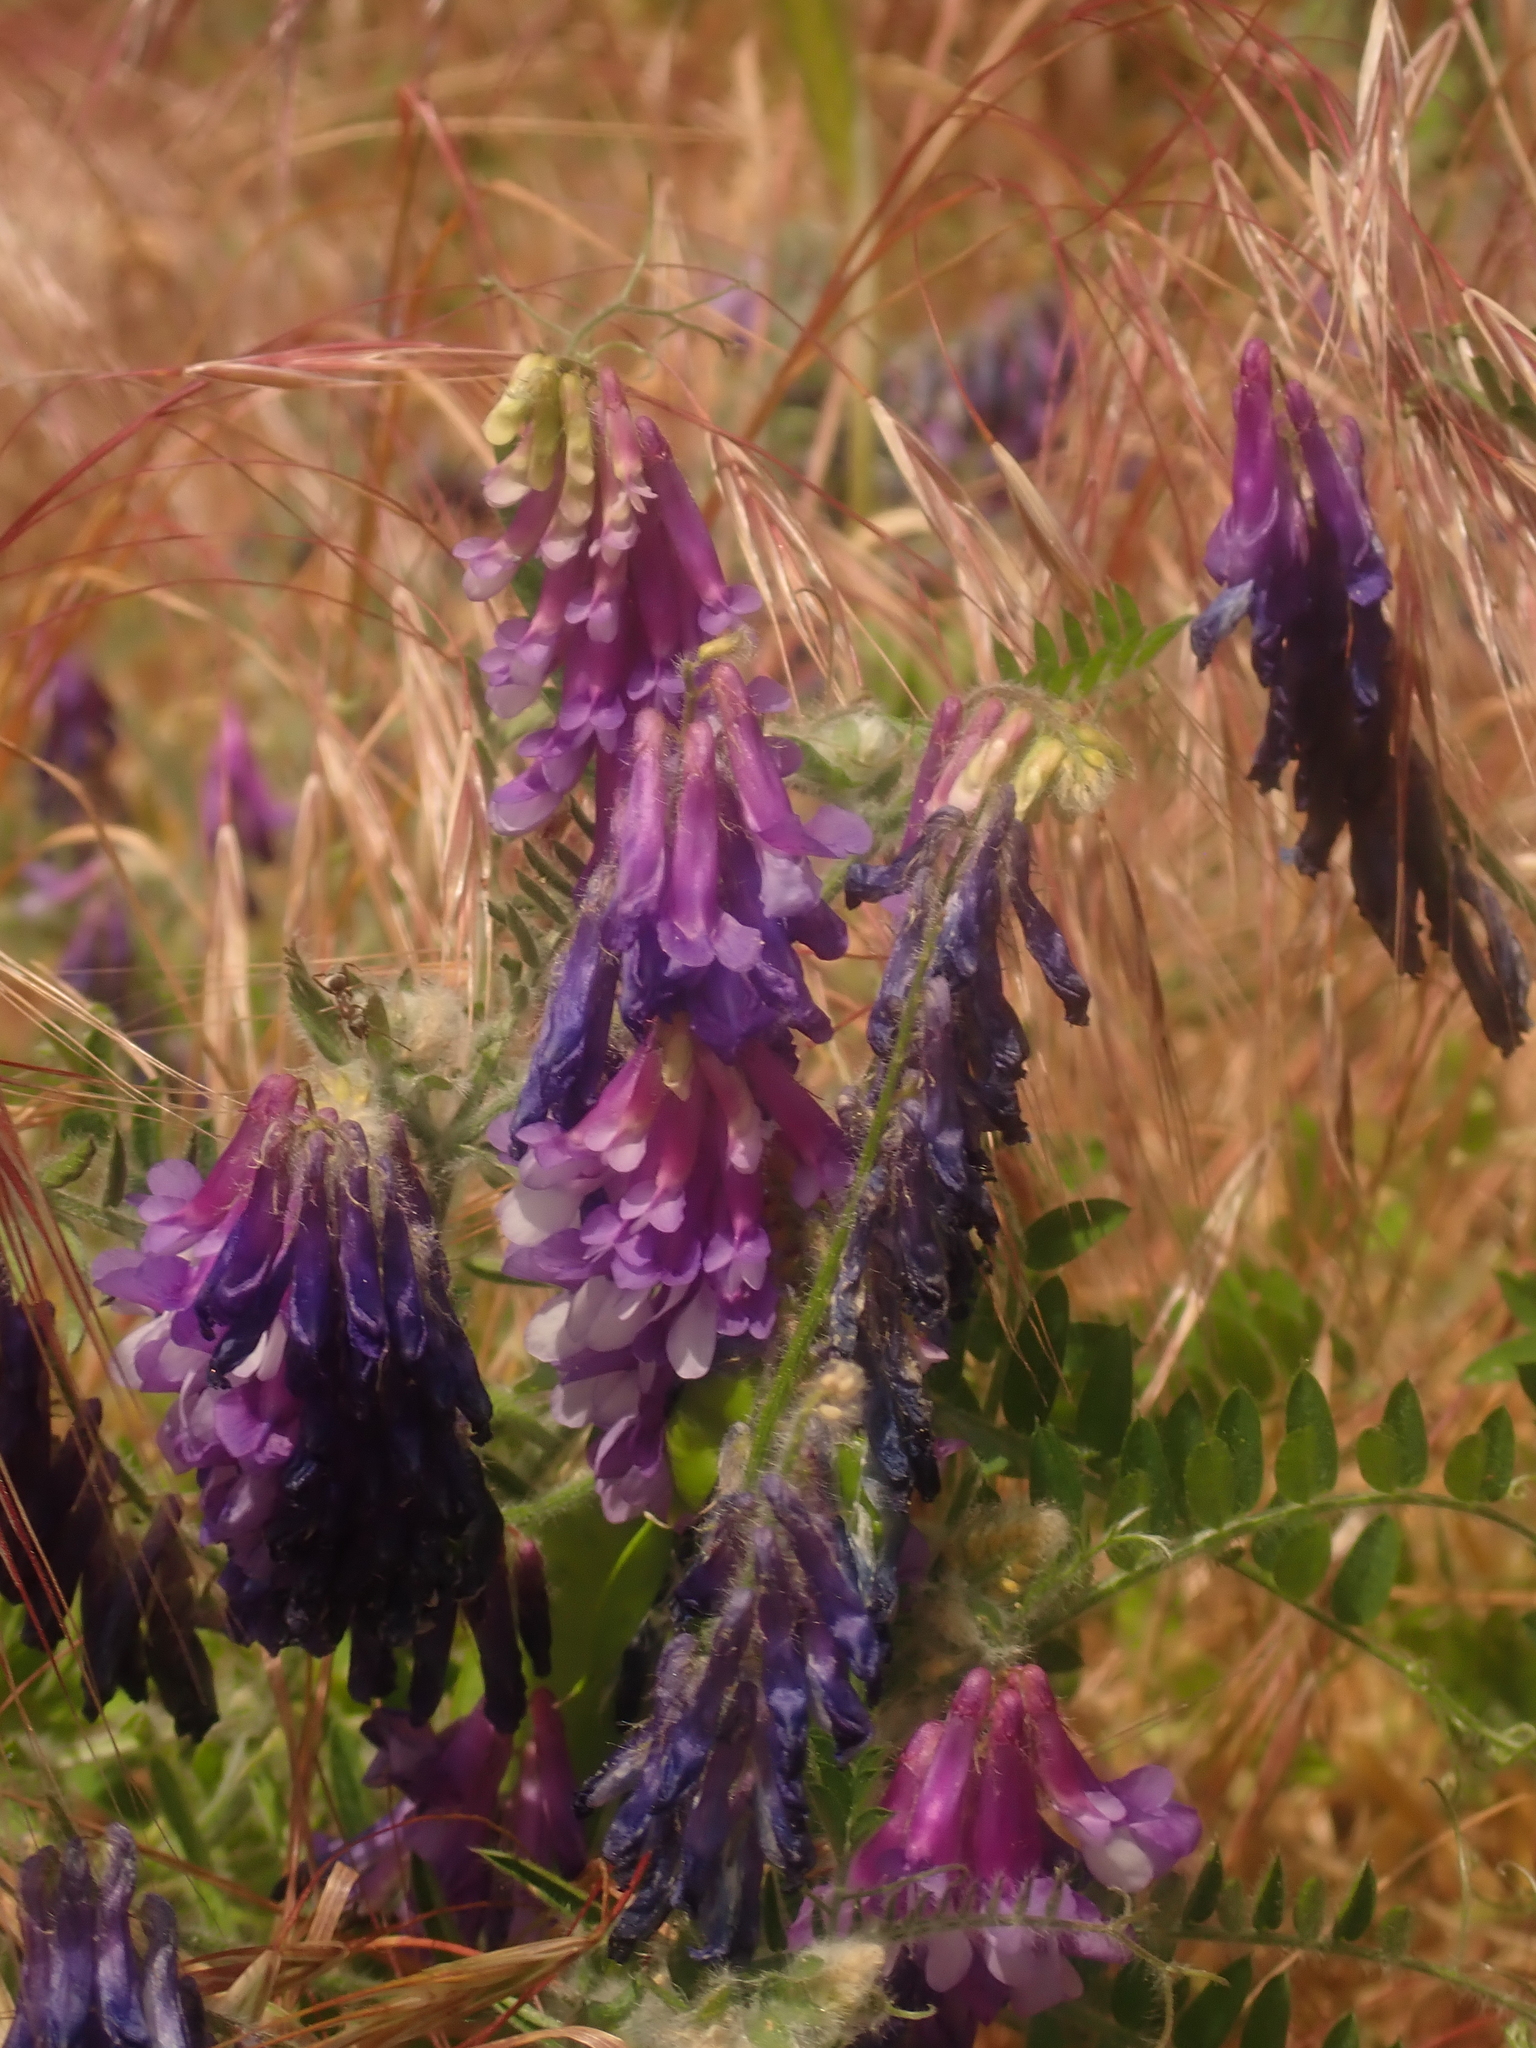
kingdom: Plantae
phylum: Tracheophyta
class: Magnoliopsida
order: Fabales
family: Fabaceae
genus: Vicia
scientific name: Vicia villosa
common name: Fodder vetch
